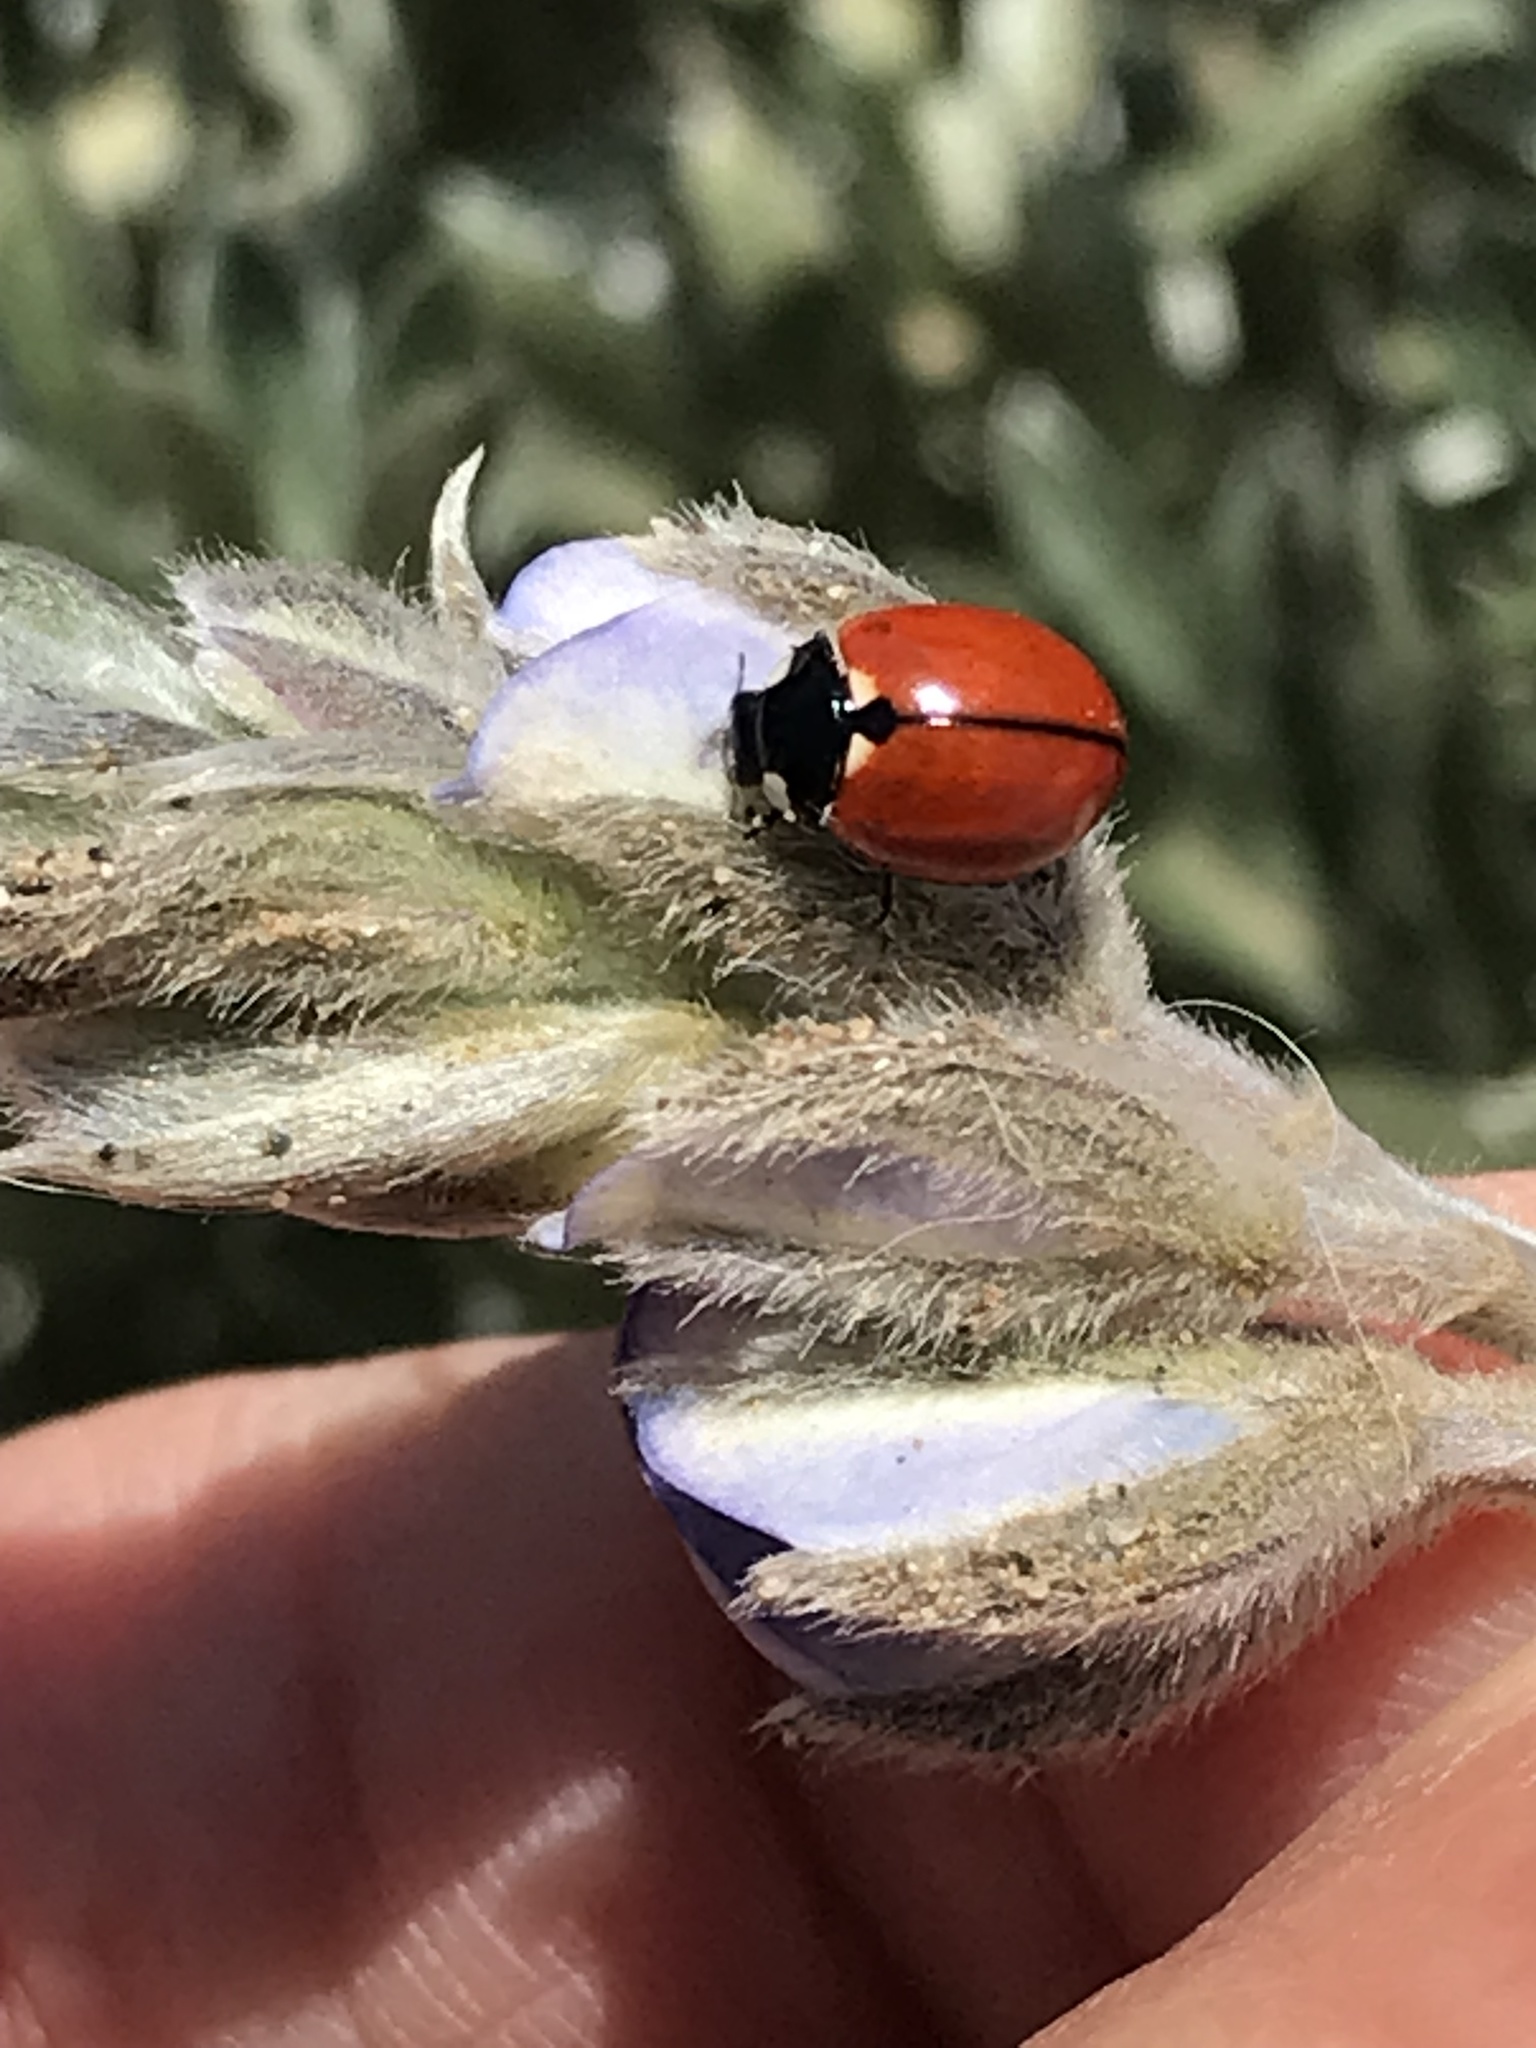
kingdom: Animalia
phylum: Arthropoda
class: Insecta
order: Coleoptera
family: Coccinellidae
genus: Coccinella
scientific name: Coccinella californica
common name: Lady beetle
